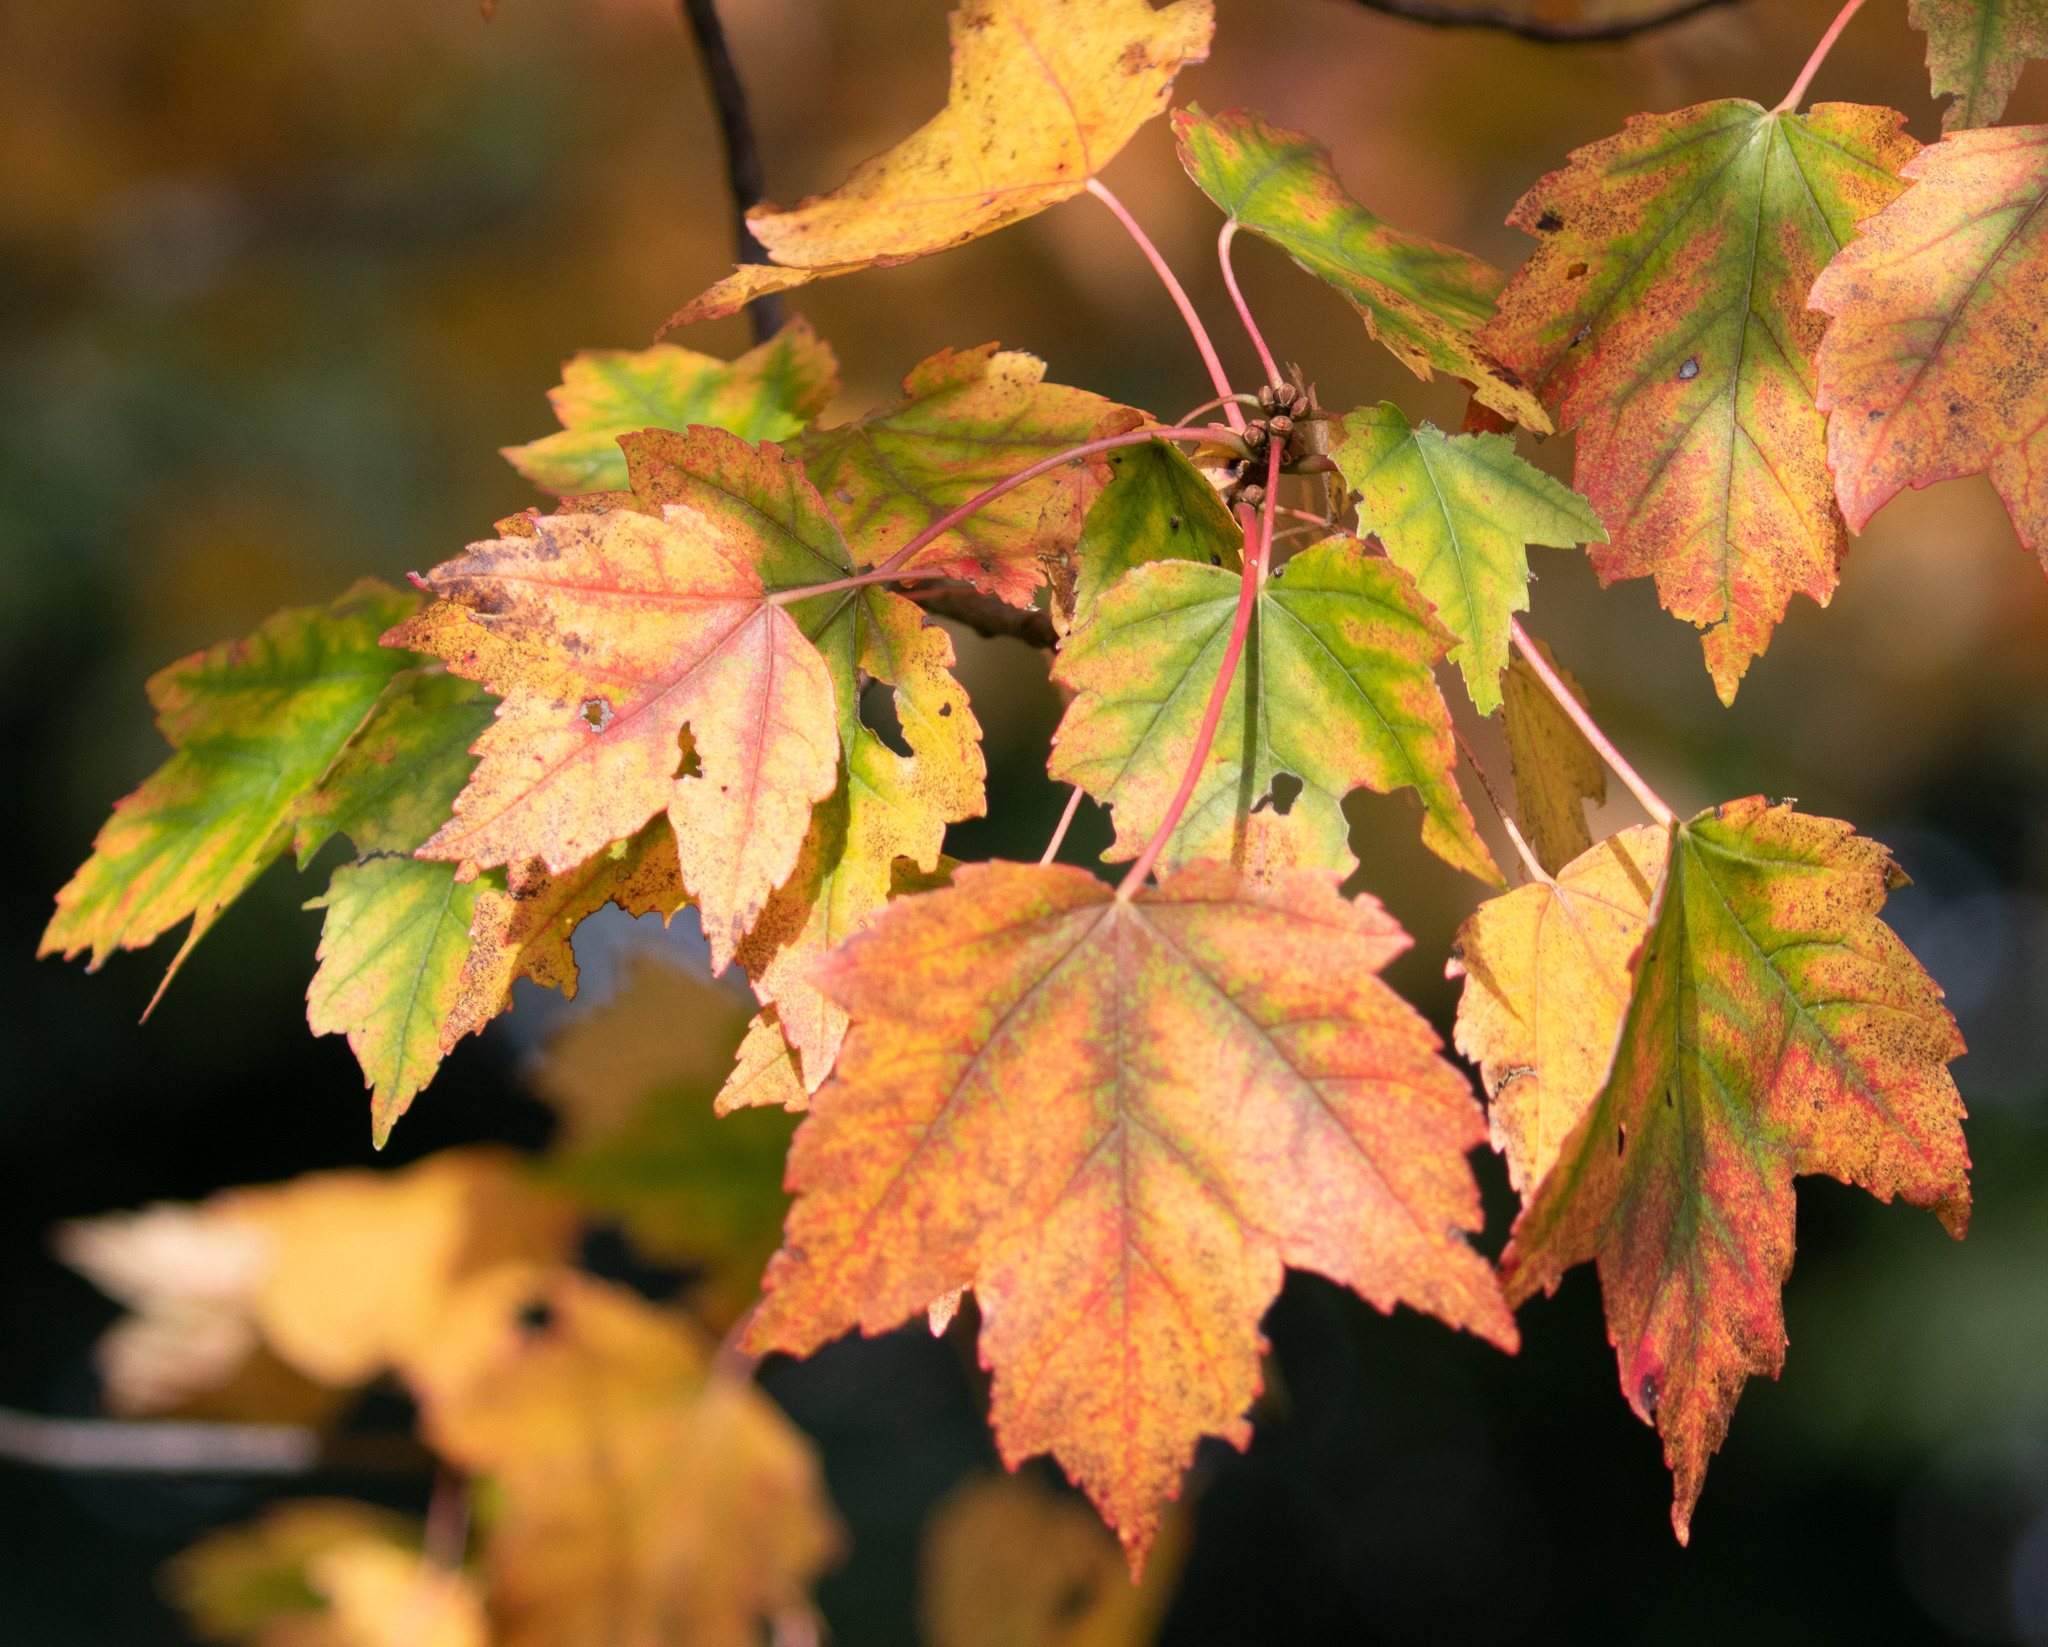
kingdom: Plantae
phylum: Tracheophyta
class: Magnoliopsida
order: Sapindales
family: Sapindaceae
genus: Acer
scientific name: Acer rubrum
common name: Red maple
